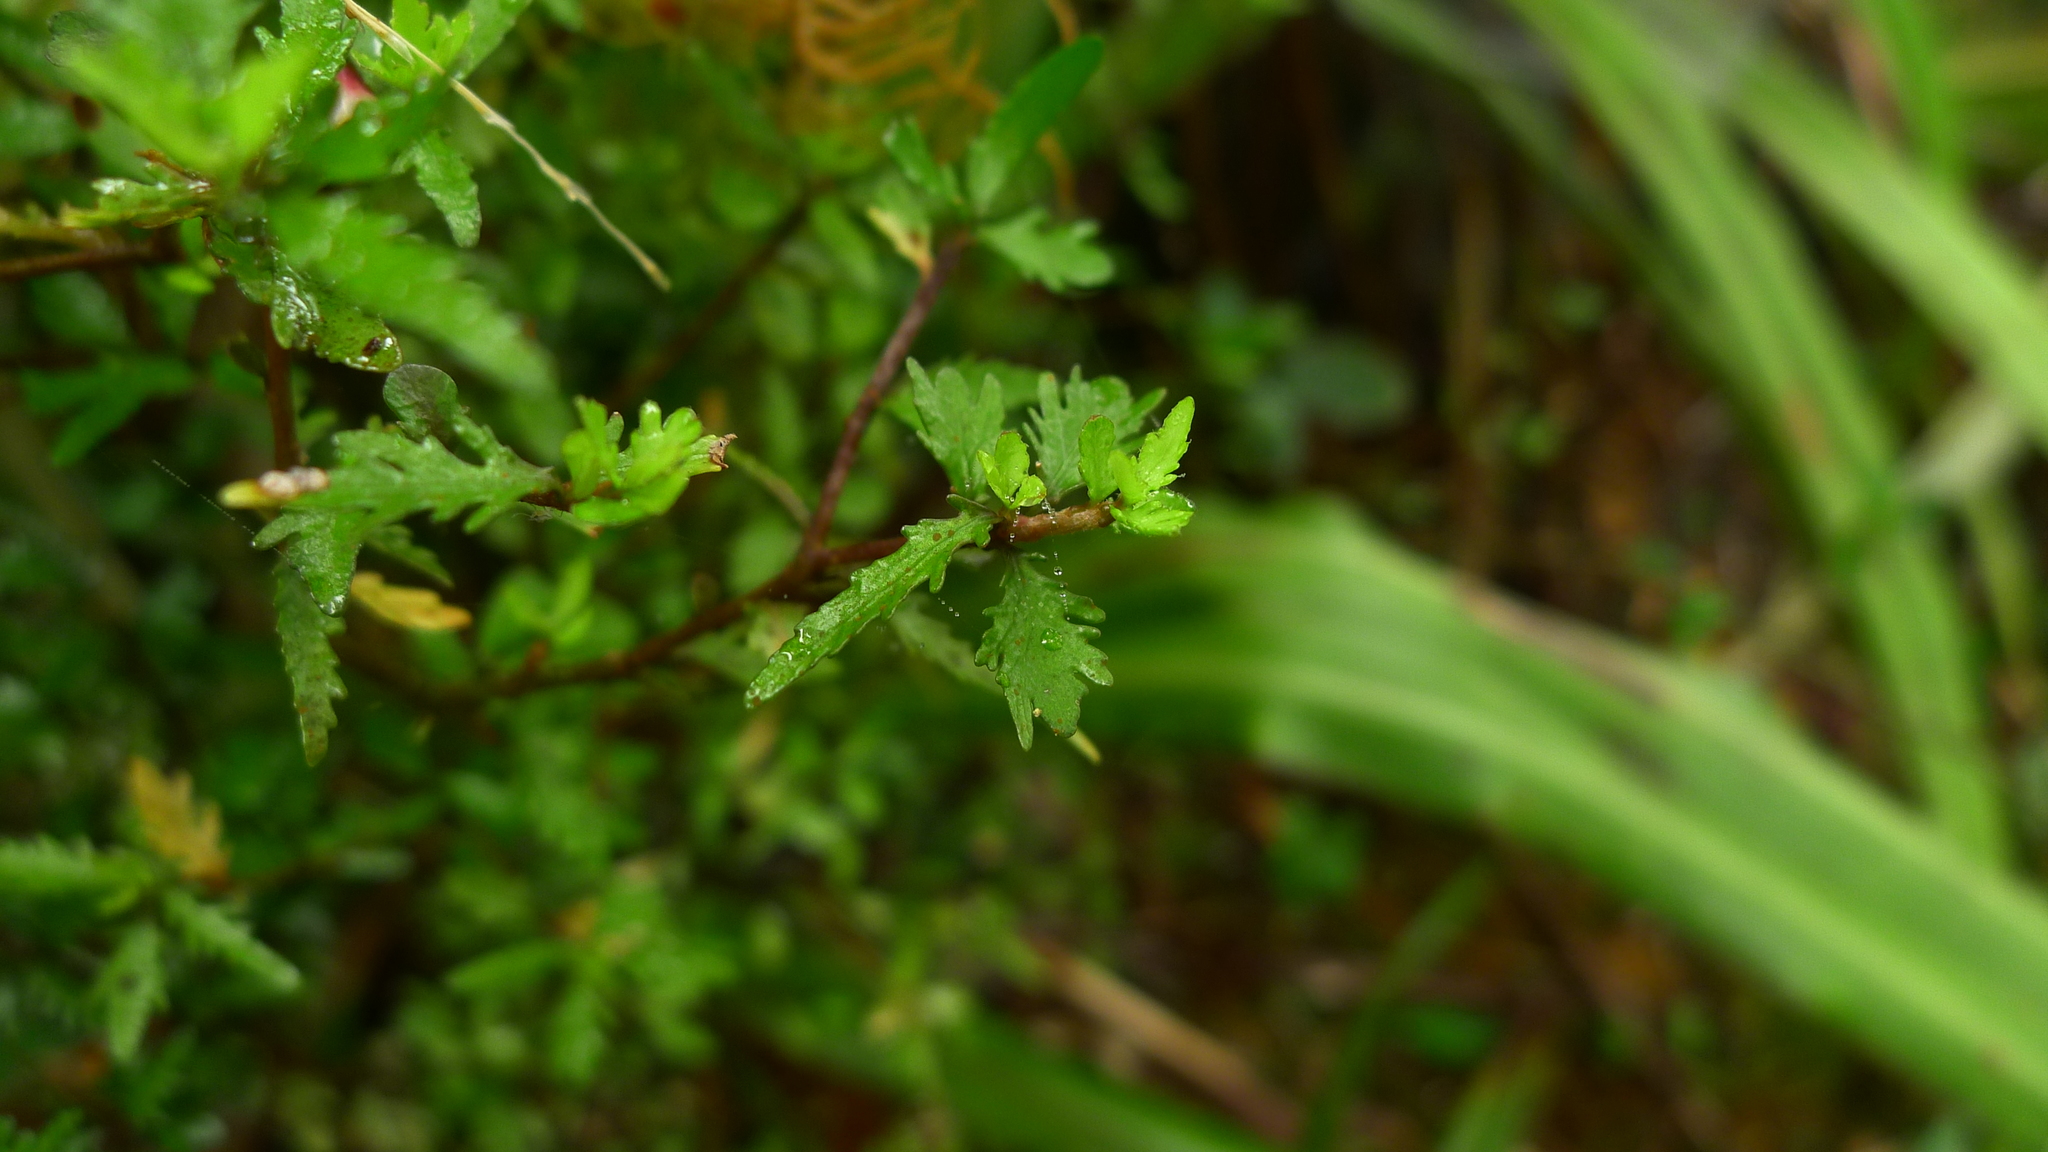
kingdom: Plantae
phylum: Tracheophyta
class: Magnoliopsida
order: Apiales
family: Pittosporaceae
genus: Pittosporum
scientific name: Pittosporum rigidum
